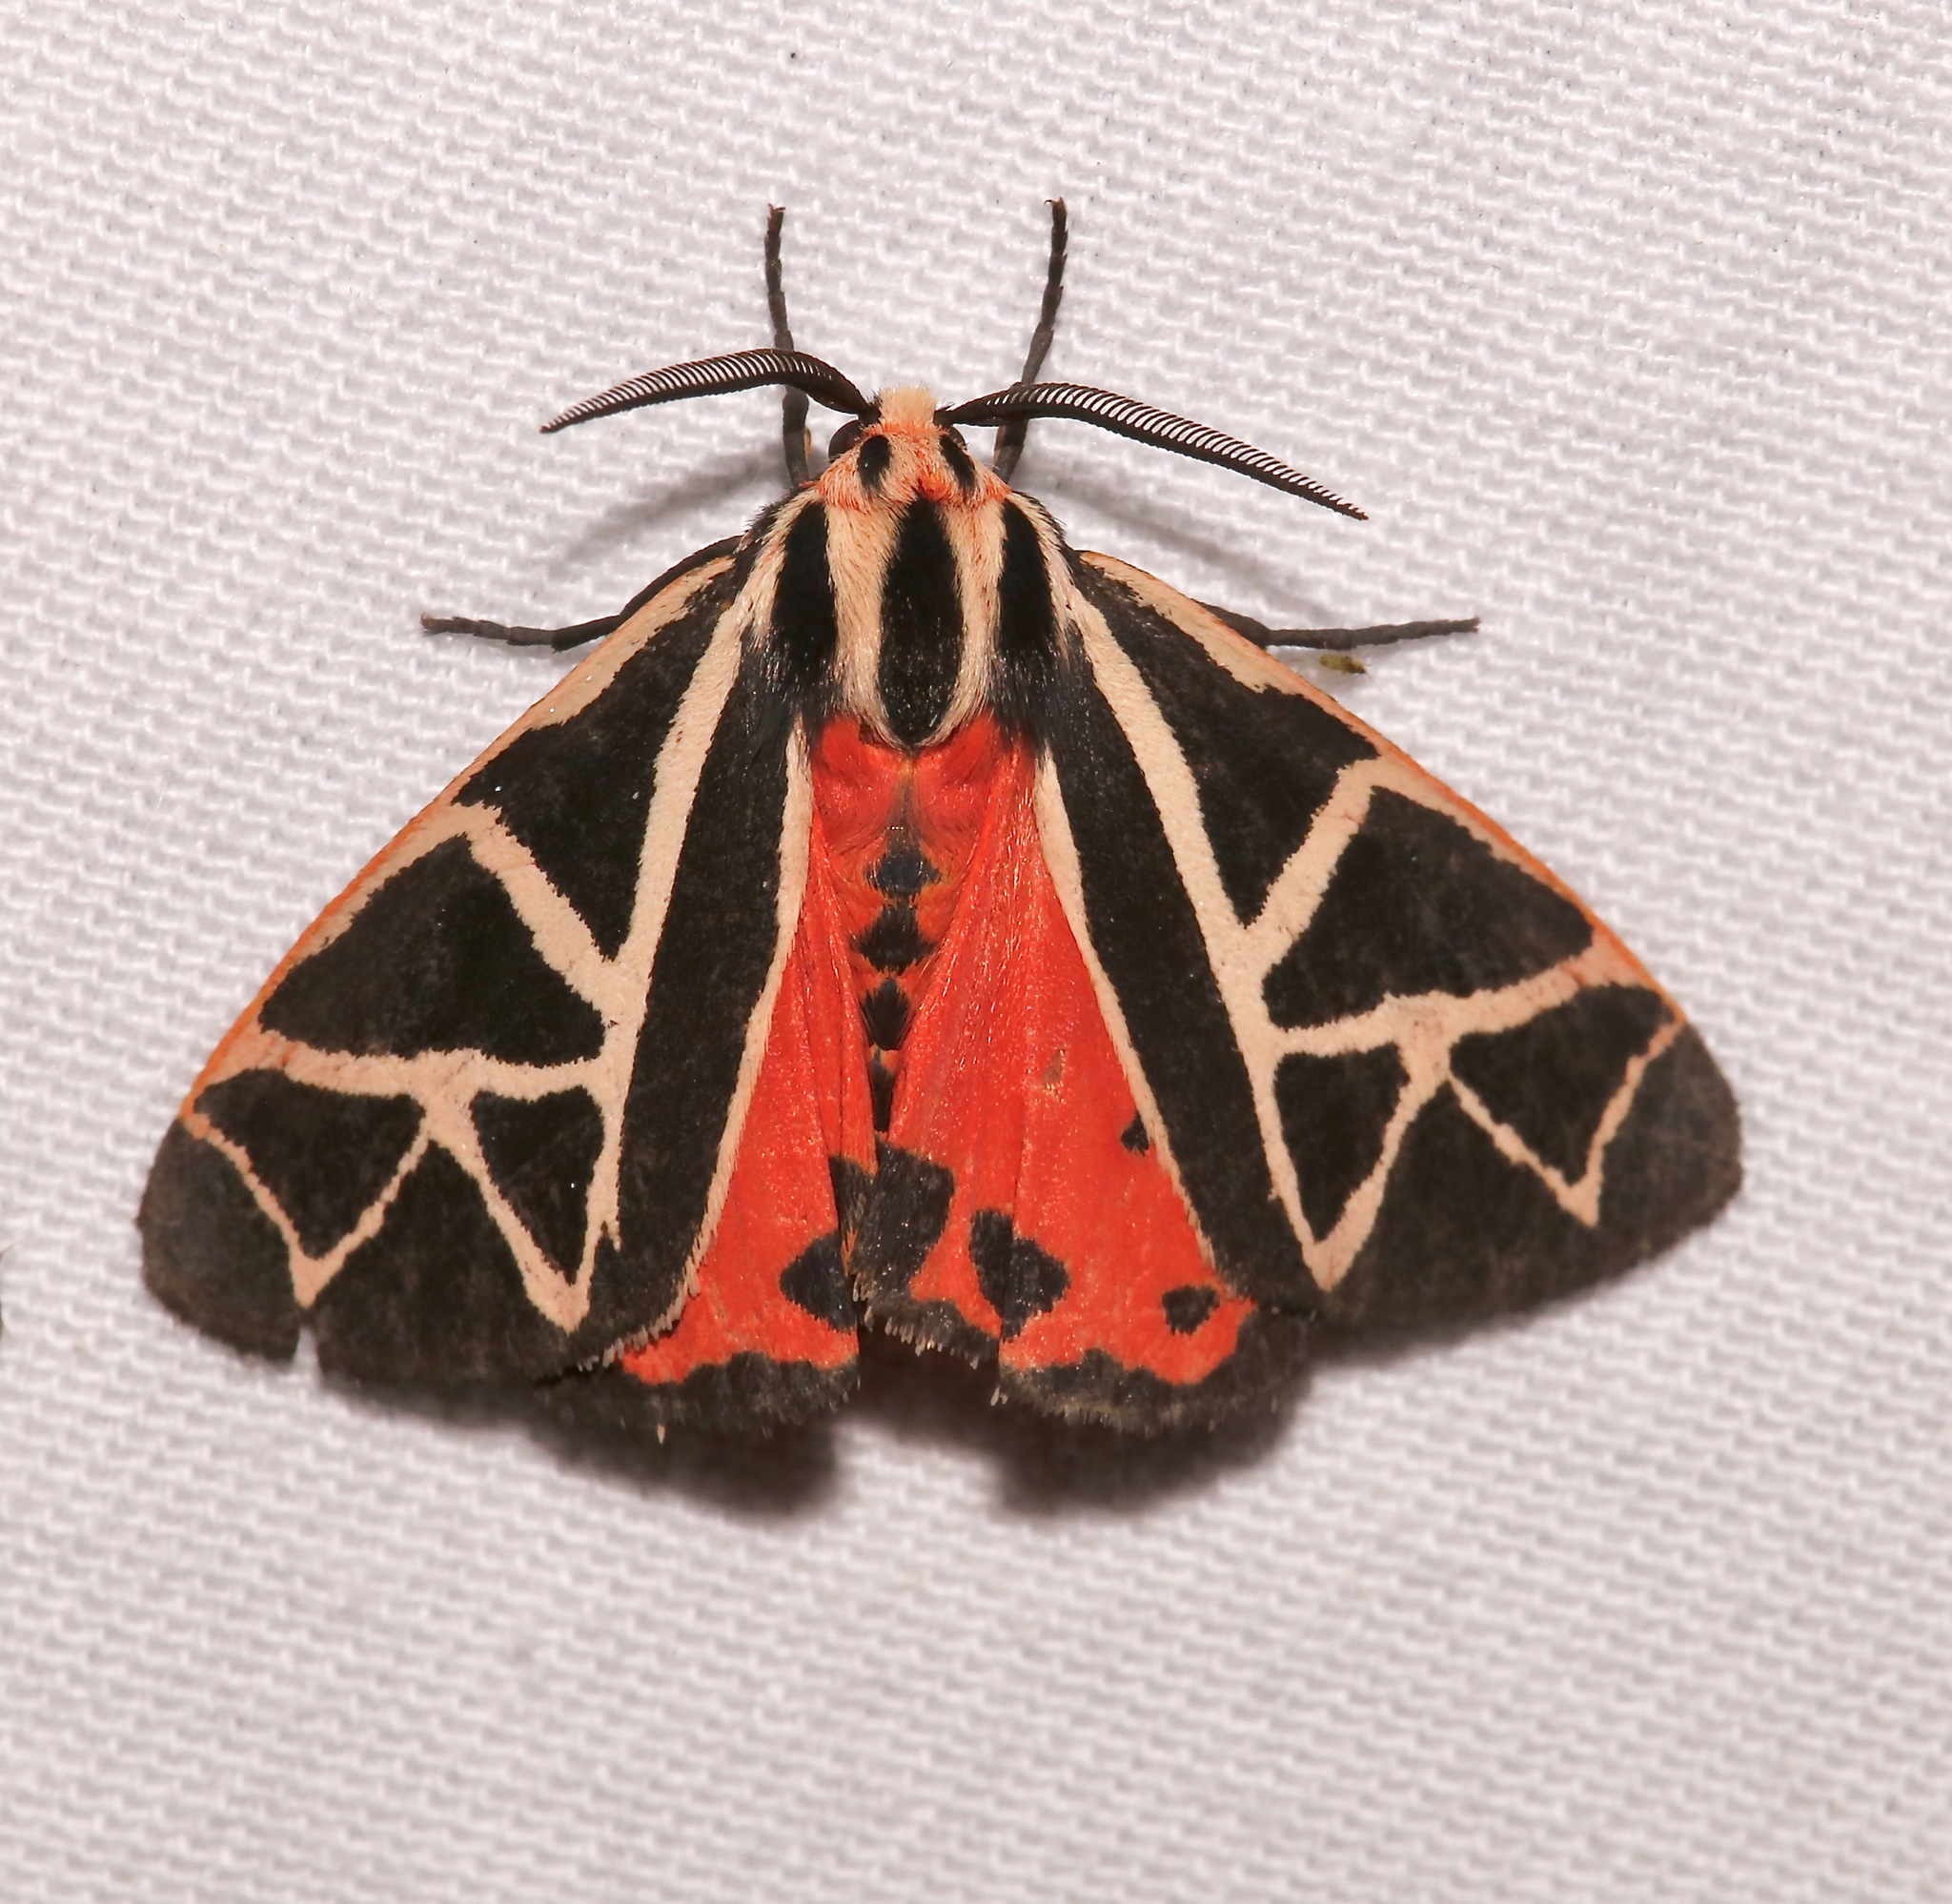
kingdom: Animalia
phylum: Arthropoda
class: Insecta
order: Lepidoptera
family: Erebidae
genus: Apantesis
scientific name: Apantesis
